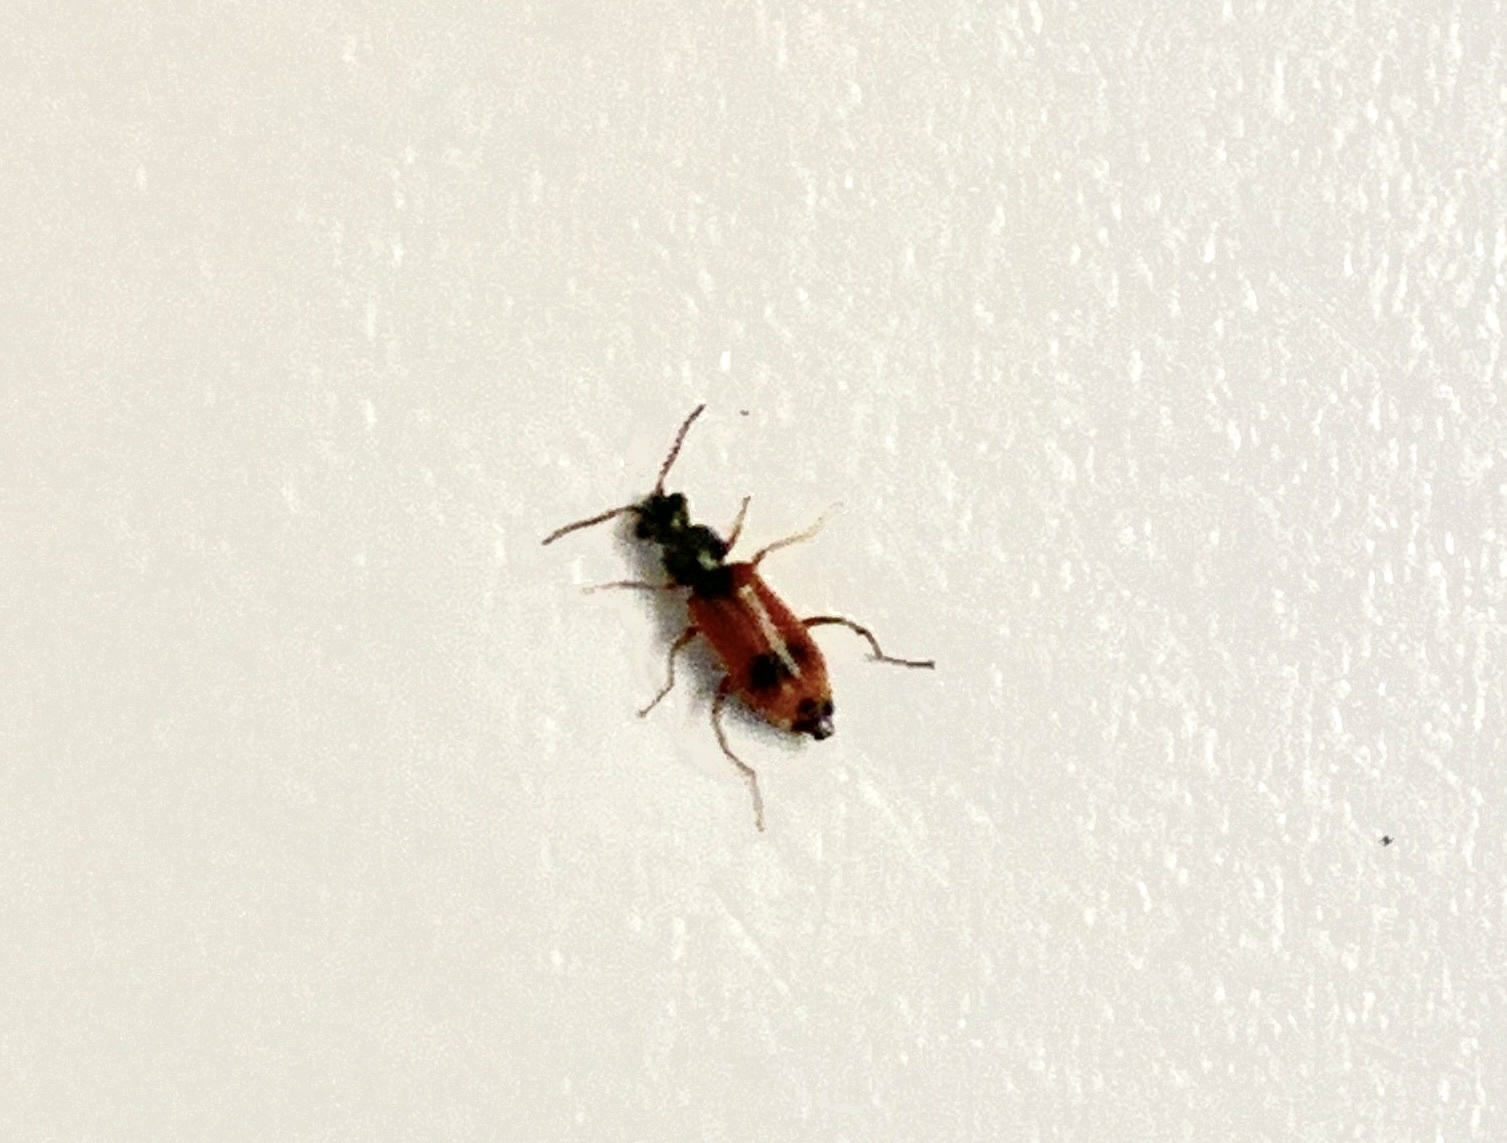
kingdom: Animalia
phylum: Arthropoda
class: Insecta
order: Coleoptera
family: Melyridae
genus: Anthocomus
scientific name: Anthocomus equestris
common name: Black-banded soft-winged flower beetle
